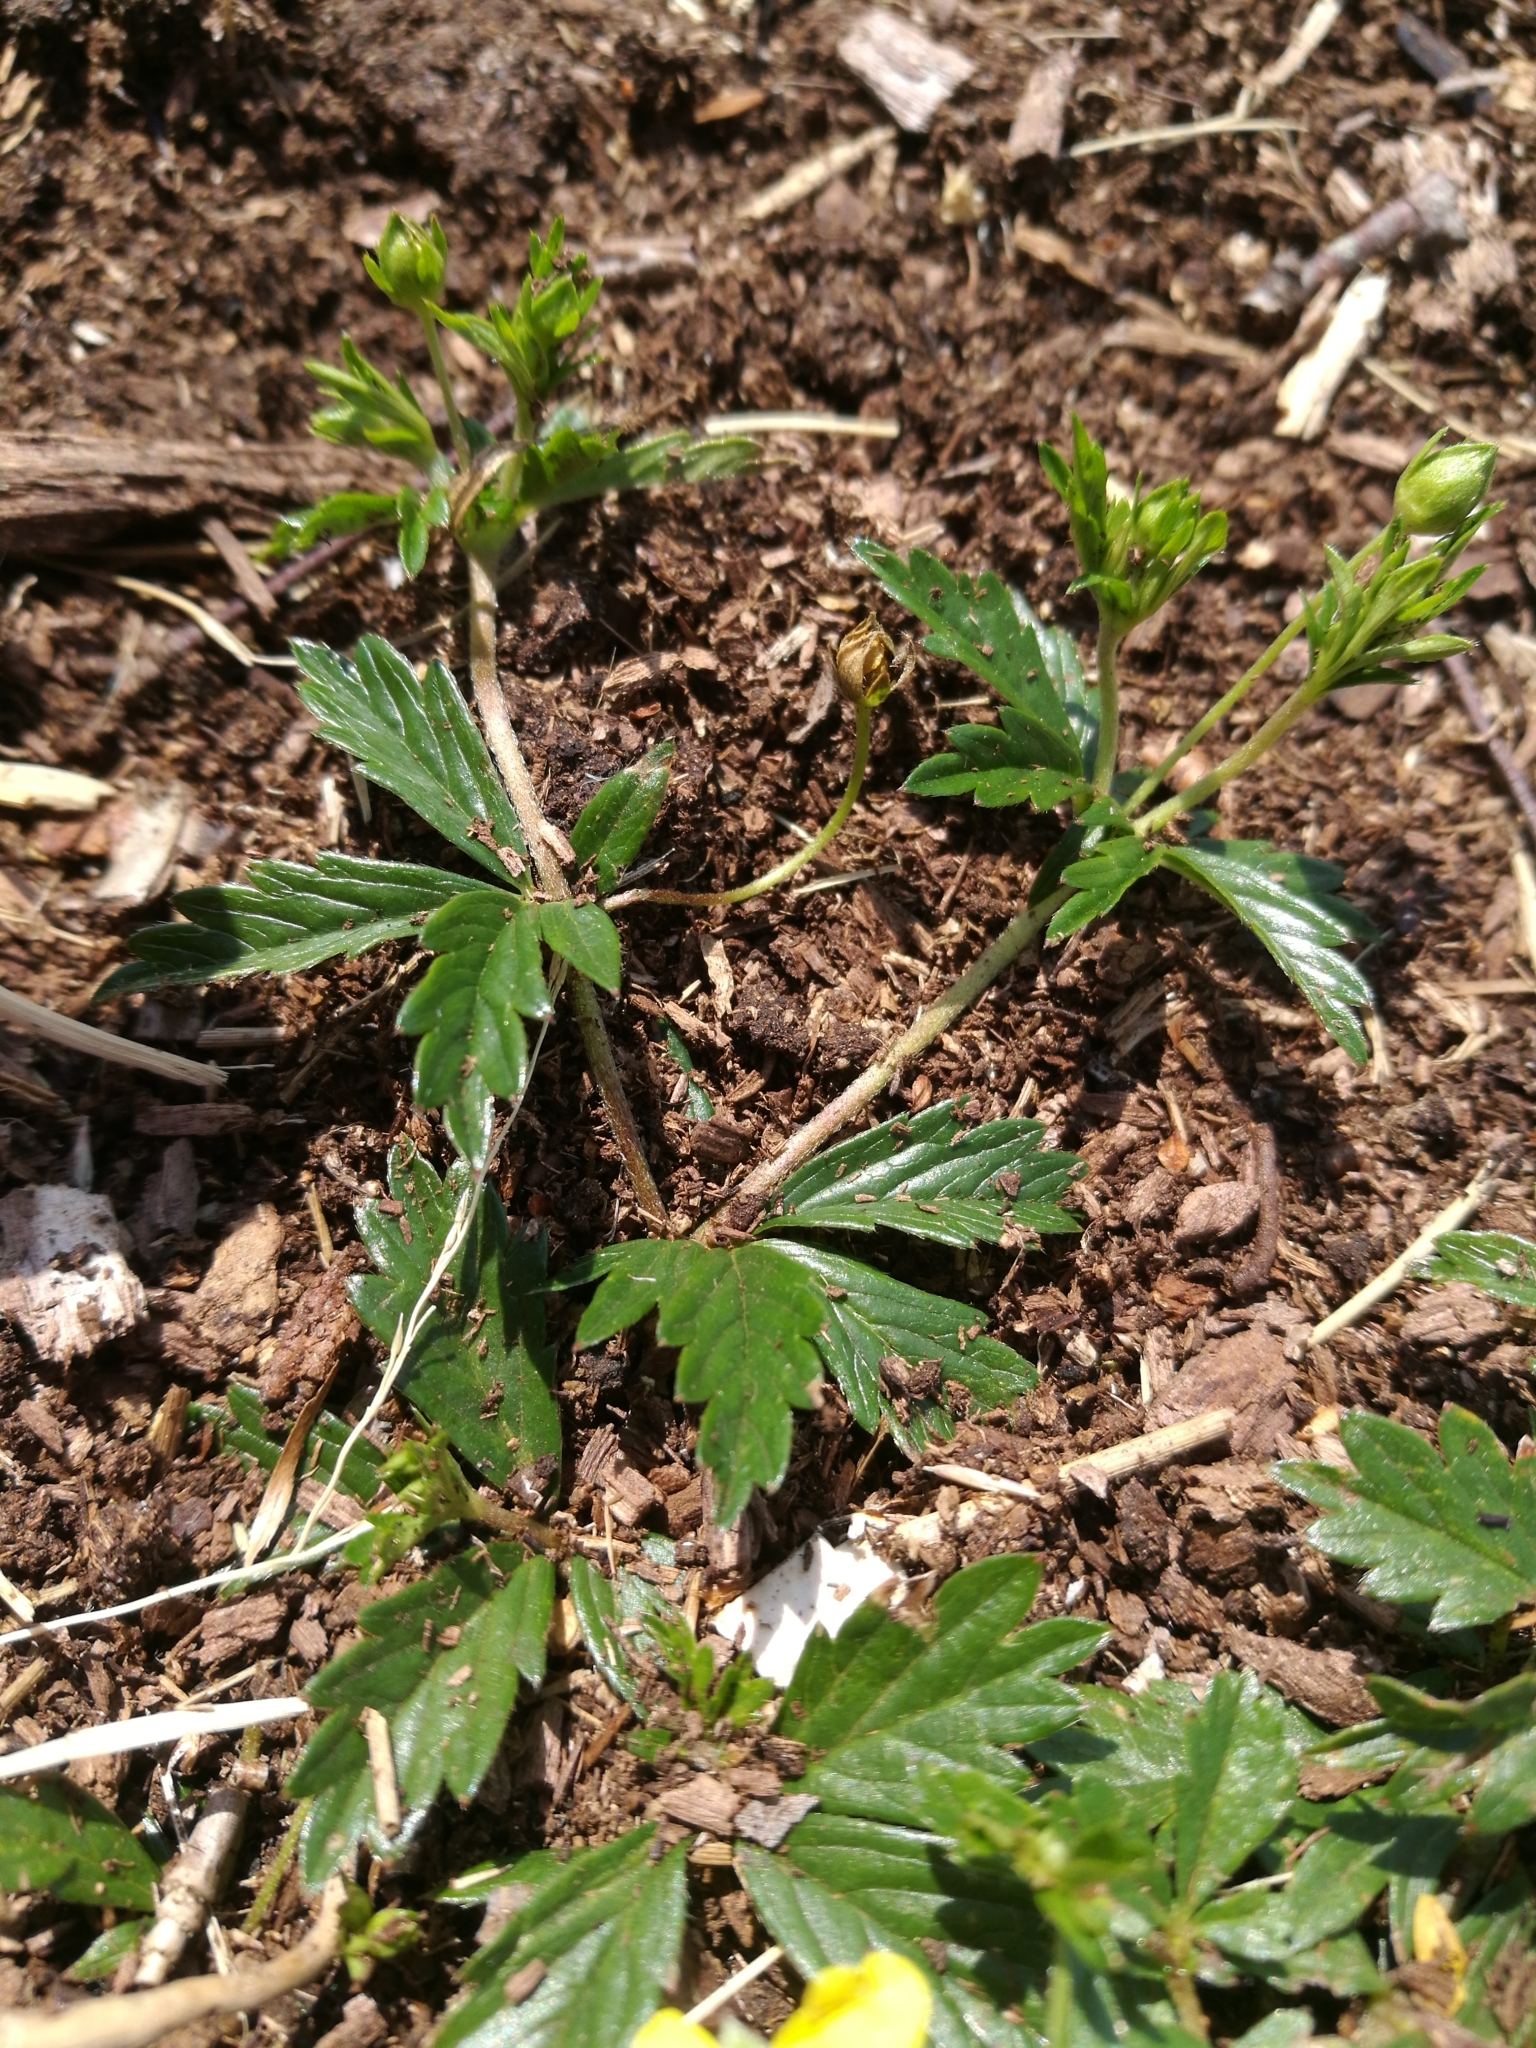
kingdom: Plantae
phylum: Tracheophyta
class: Magnoliopsida
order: Rosales
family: Rosaceae
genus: Potentilla
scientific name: Potentilla erecta
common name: Tormentil
